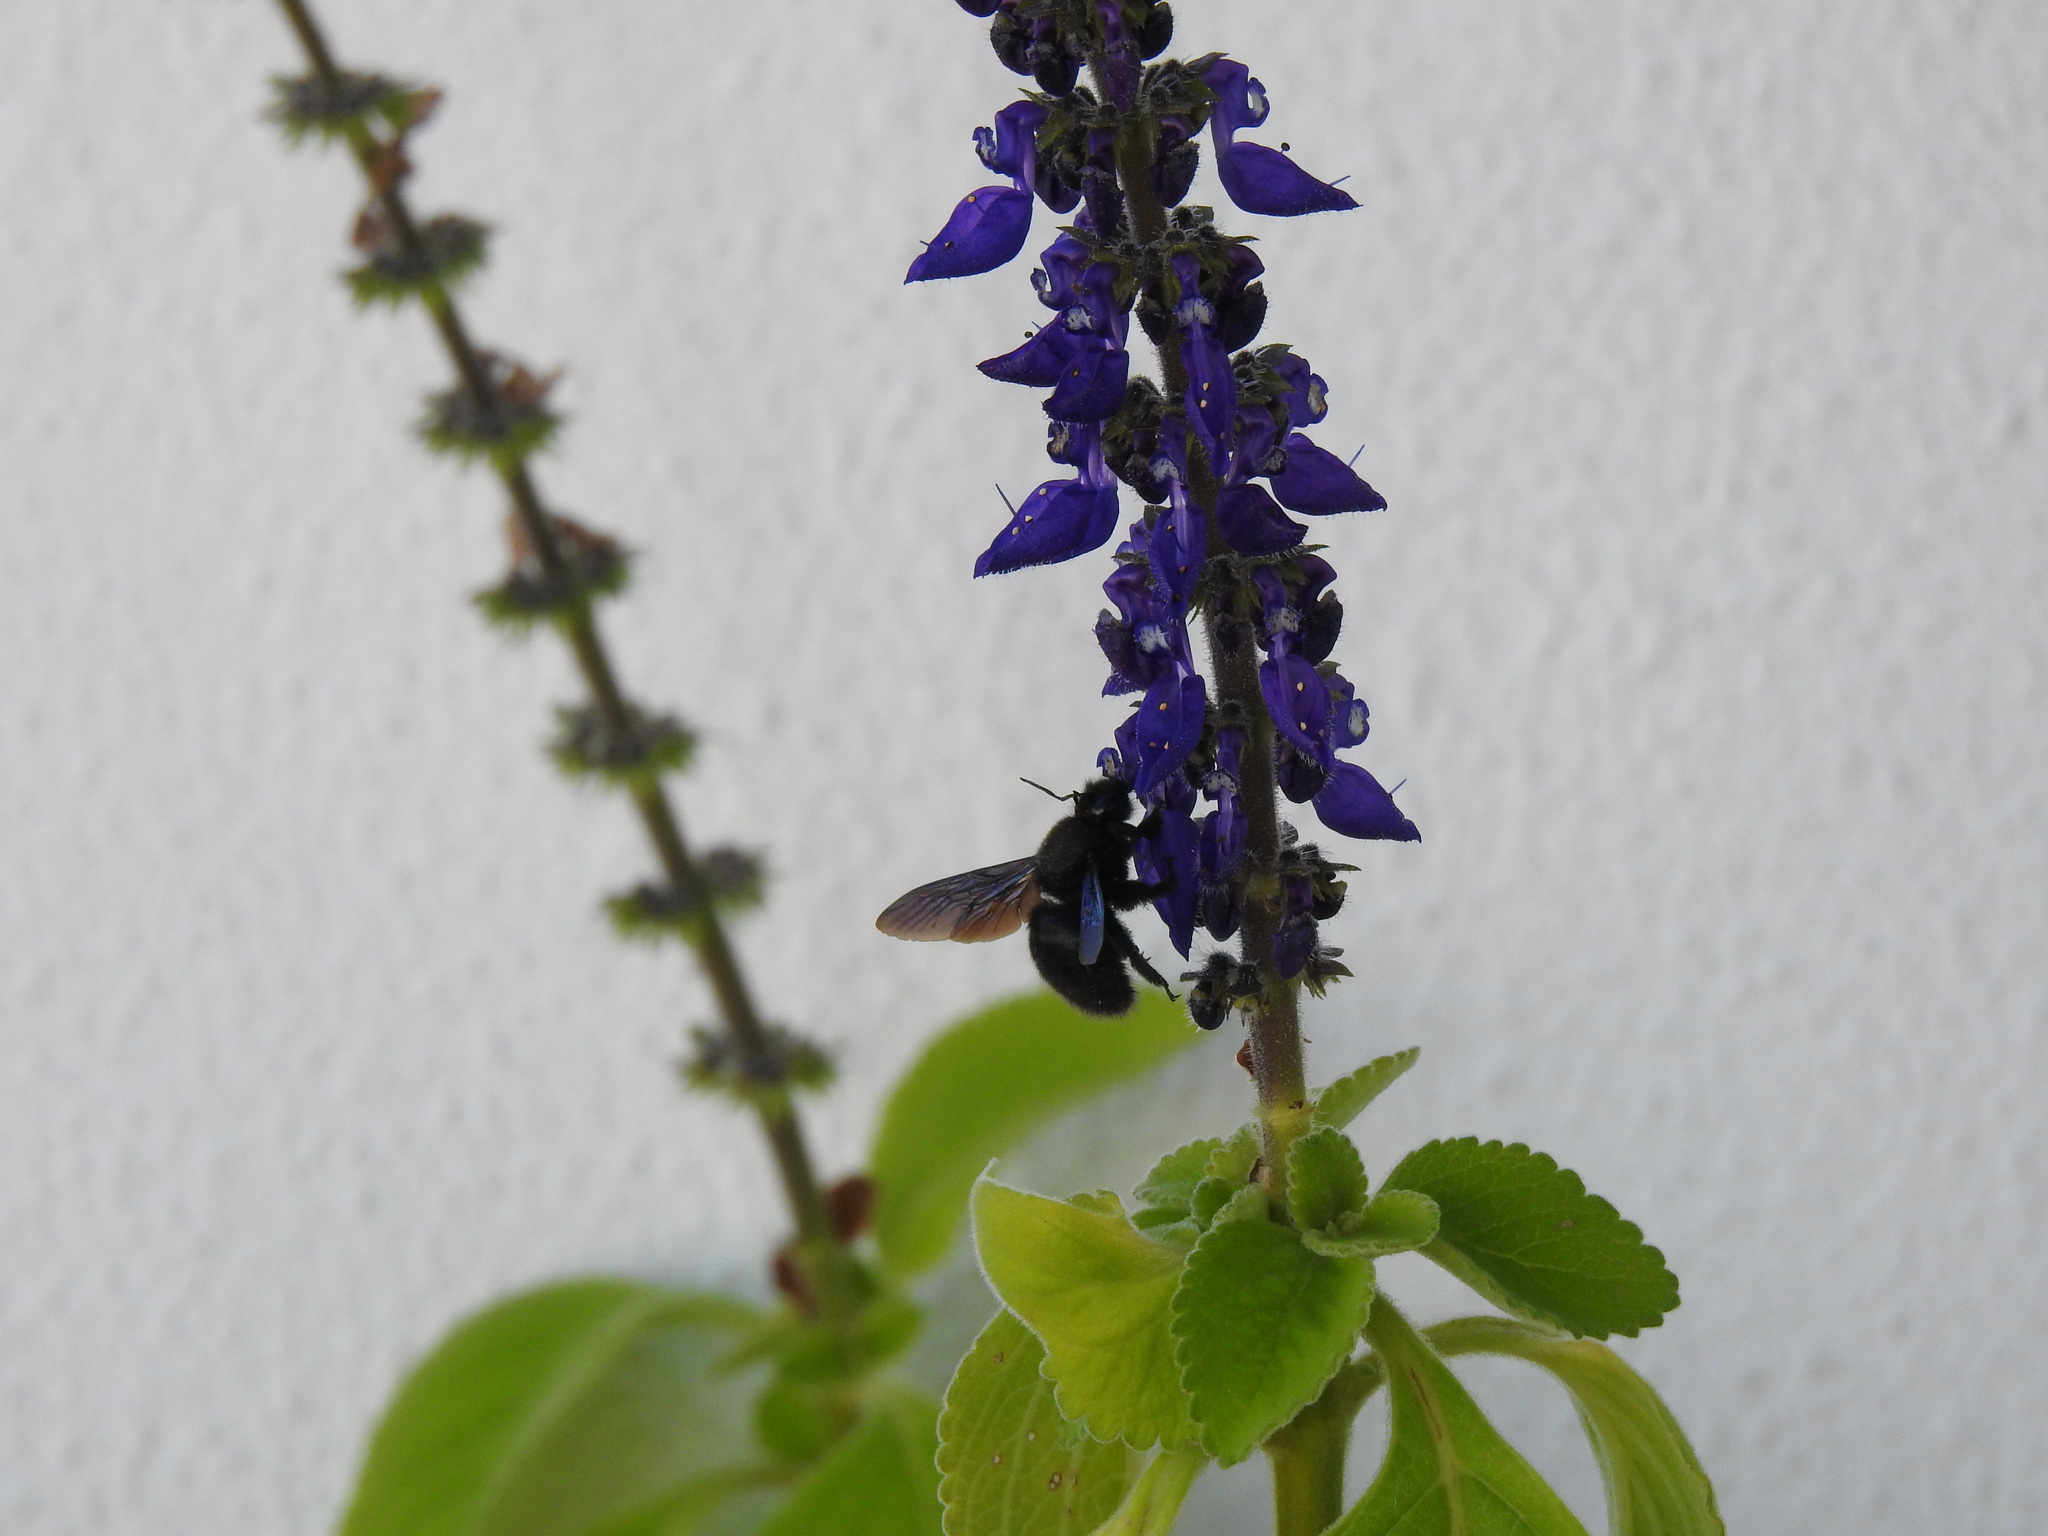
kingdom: Animalia
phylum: Arthropoda
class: Insecta
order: Hymenoptera
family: Apidae
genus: Xylocopa
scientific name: Xylocopa violacea
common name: Violet carpenter bee
